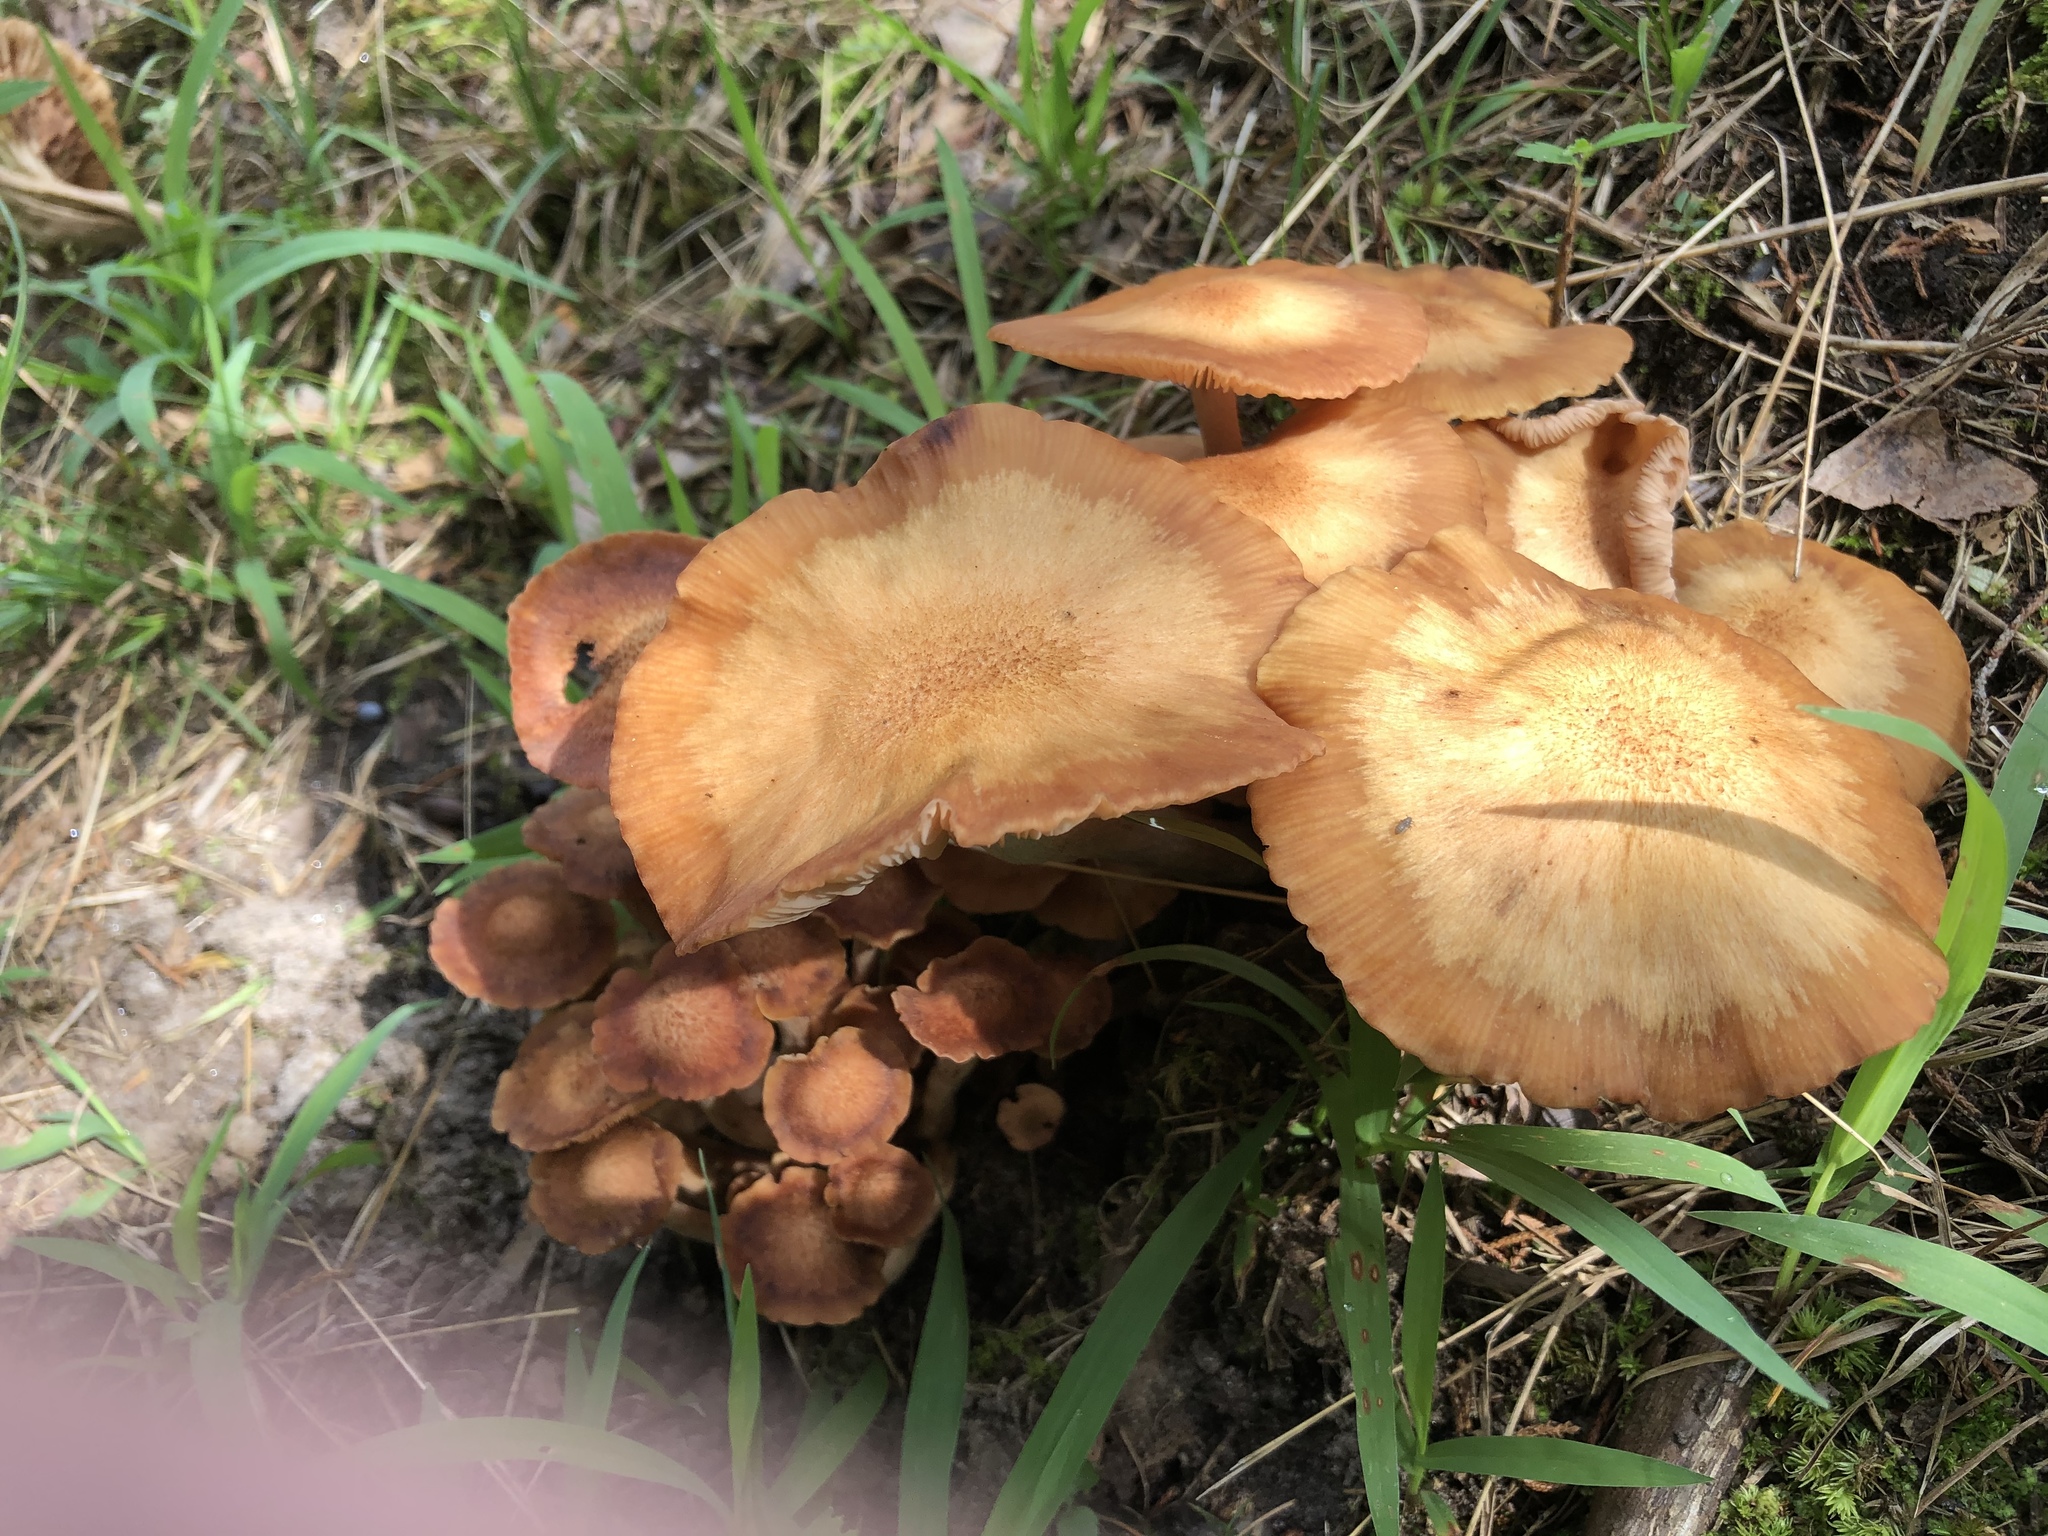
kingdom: Fungi
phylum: Basidiomycota
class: Agaricomycetes
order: Agaricales
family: Physalacriaceae
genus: Desarmillaria
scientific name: Desarmillaria caespitosa
